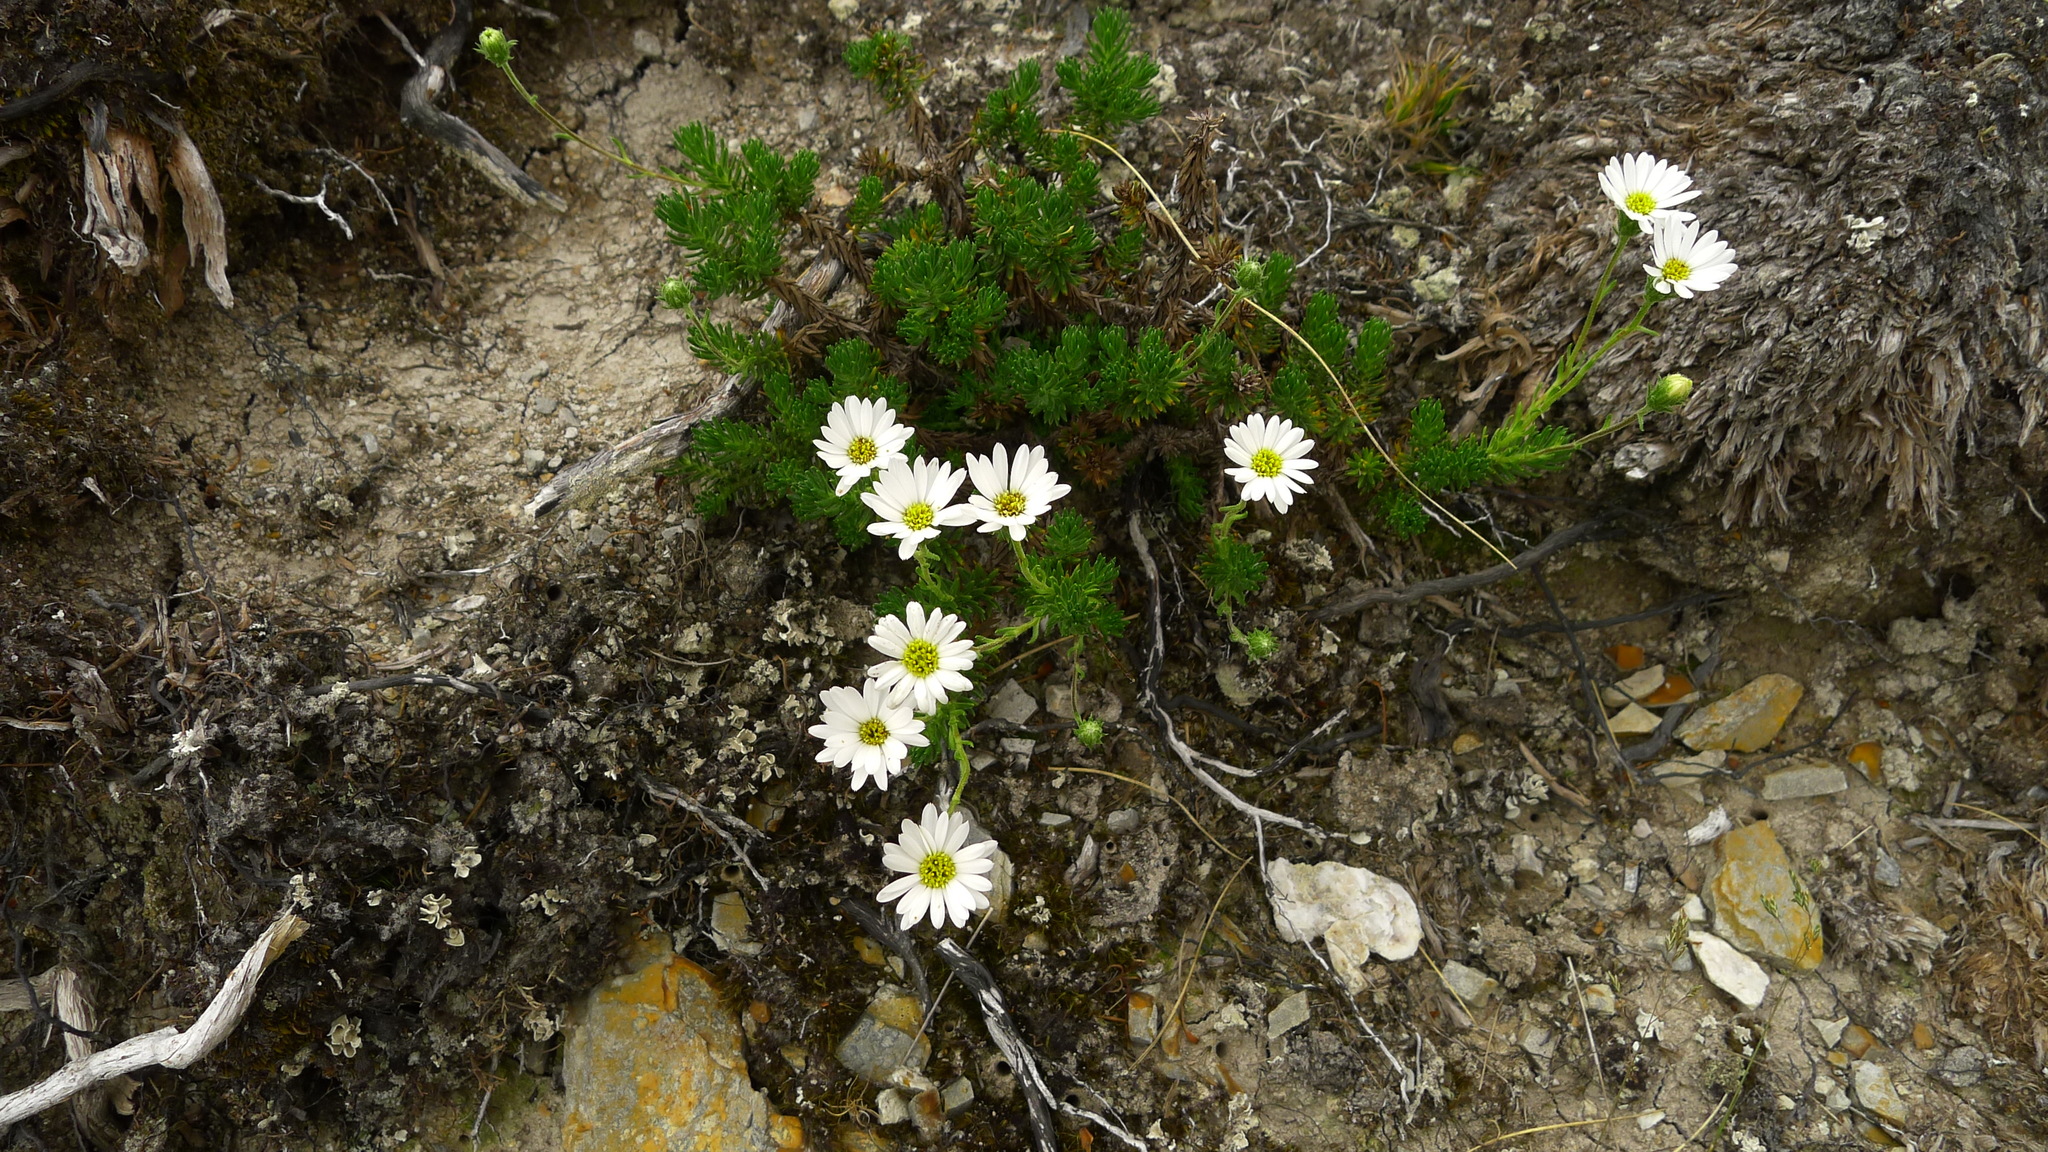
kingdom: Plantae
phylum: Tracheophyta
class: Magnoliopsida
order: Asterales
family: Asteraceae
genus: Celmisia
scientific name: Celmisia lateralis
